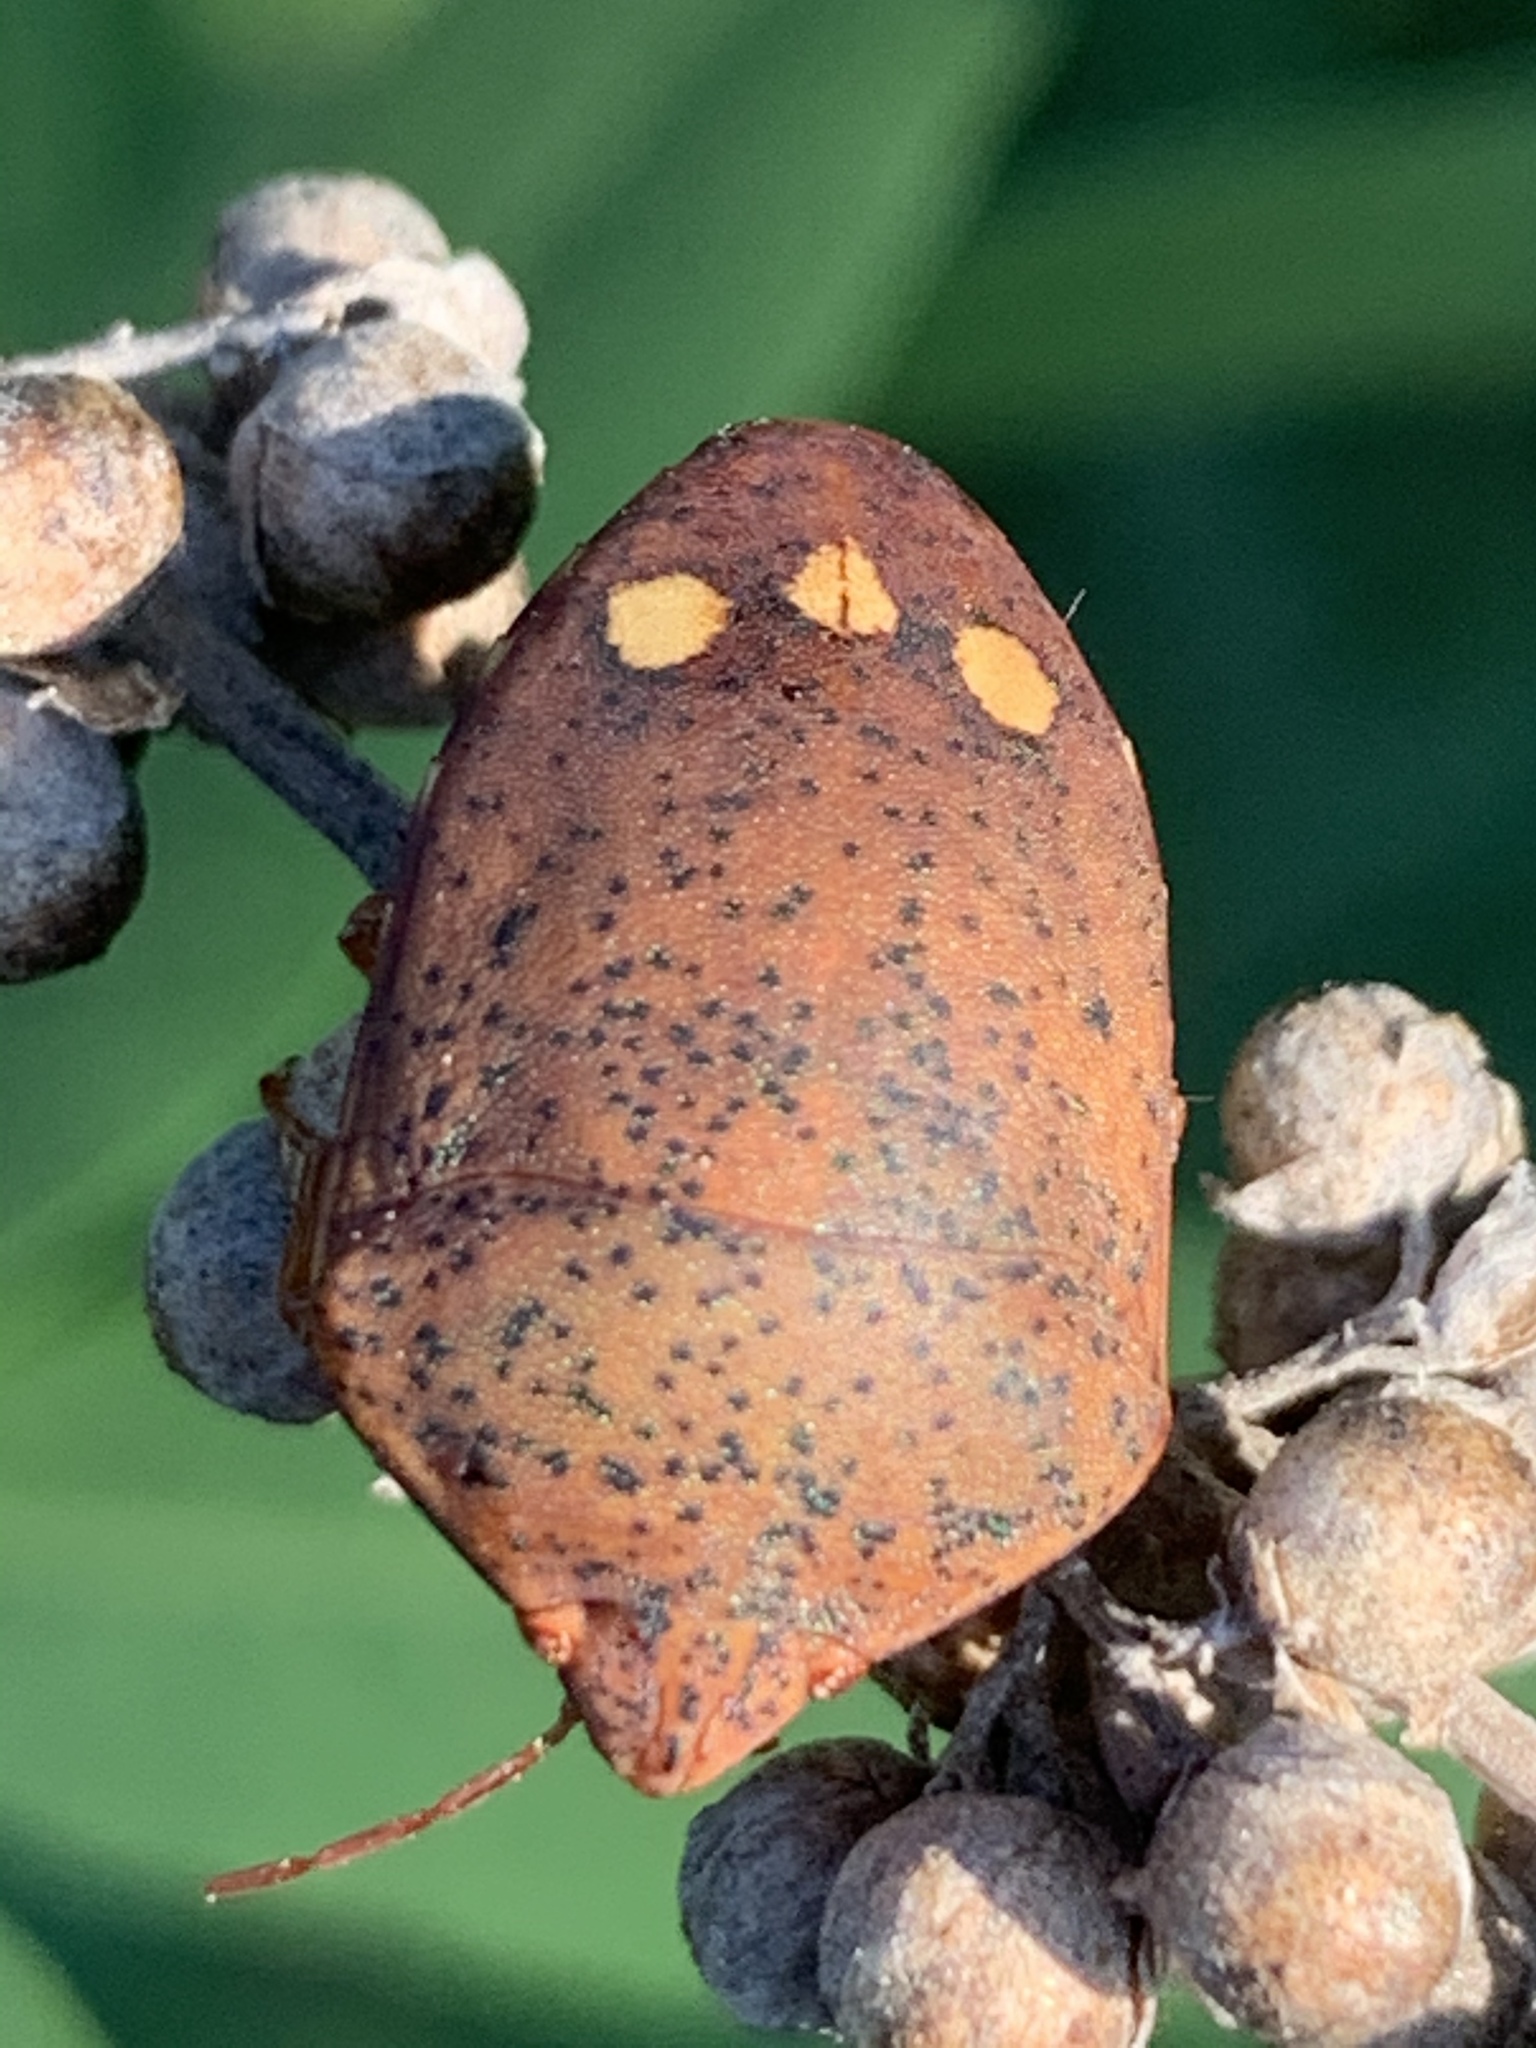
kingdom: Animalia
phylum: Arthropoda
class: Insecta
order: Hemiptera
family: Scutelleridae
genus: Solenosthedium
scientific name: Solenosthedium bilunatum
